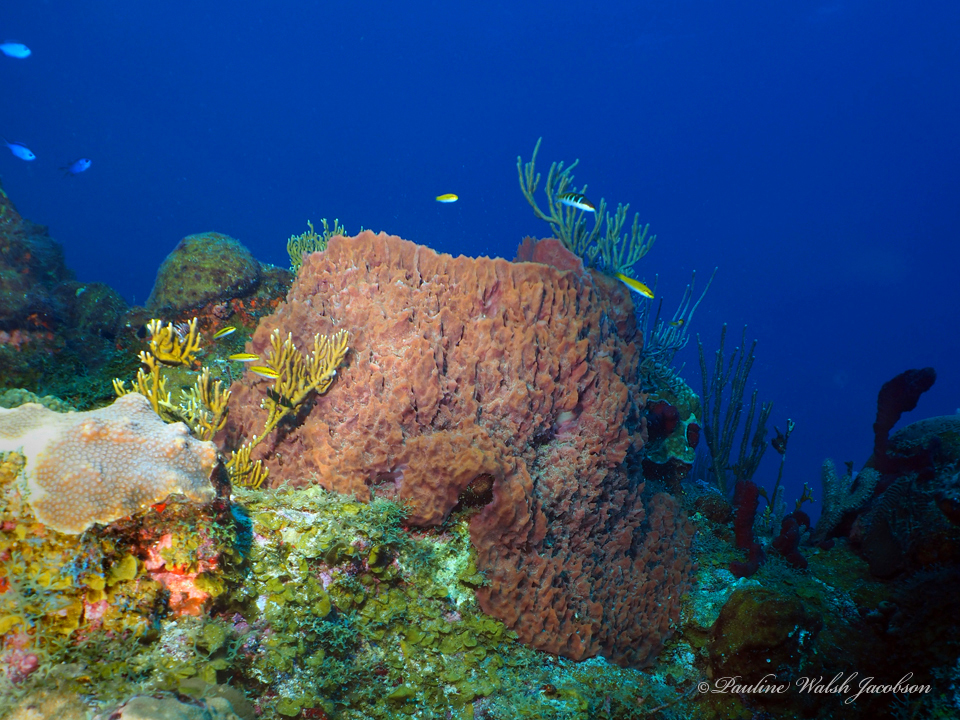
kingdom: Animalia
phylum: Porifera
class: Demospongiae
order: Haplosclerida
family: Petrosiidae
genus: Xestospongia
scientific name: Xestospongia muta
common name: Giant barrel sponge
